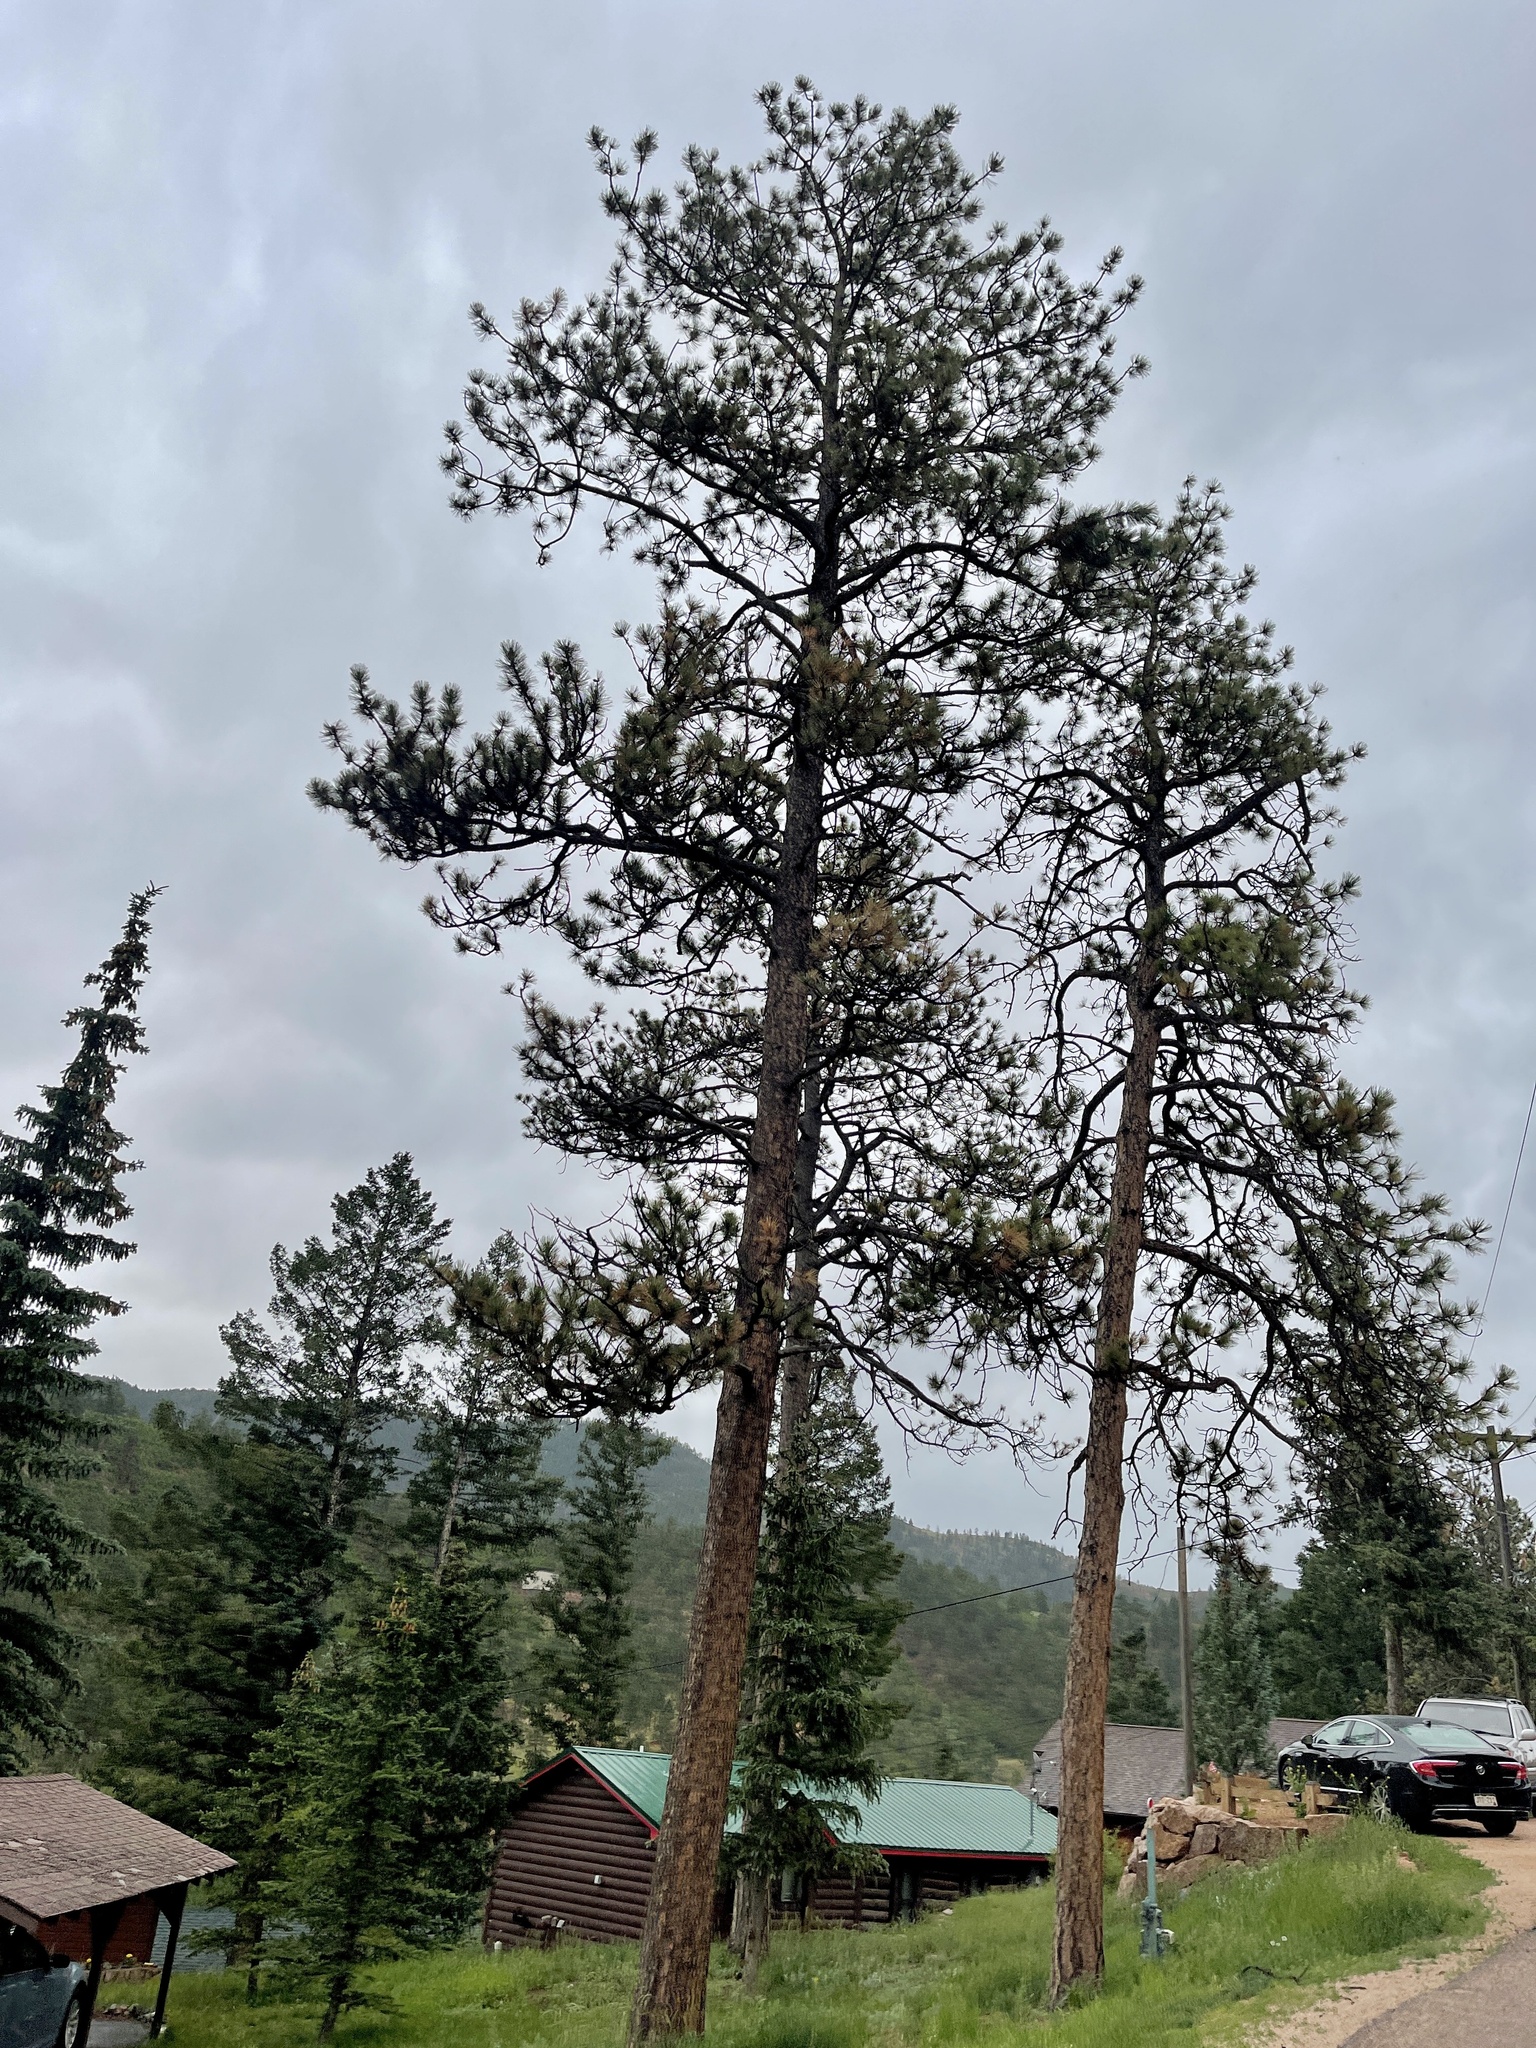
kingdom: Plantae
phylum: Tracheophyta
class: Pinopsida
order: Pinales
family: Pinaceae
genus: Pinus
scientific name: Pinus ponderosa
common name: Western yellow-pine
